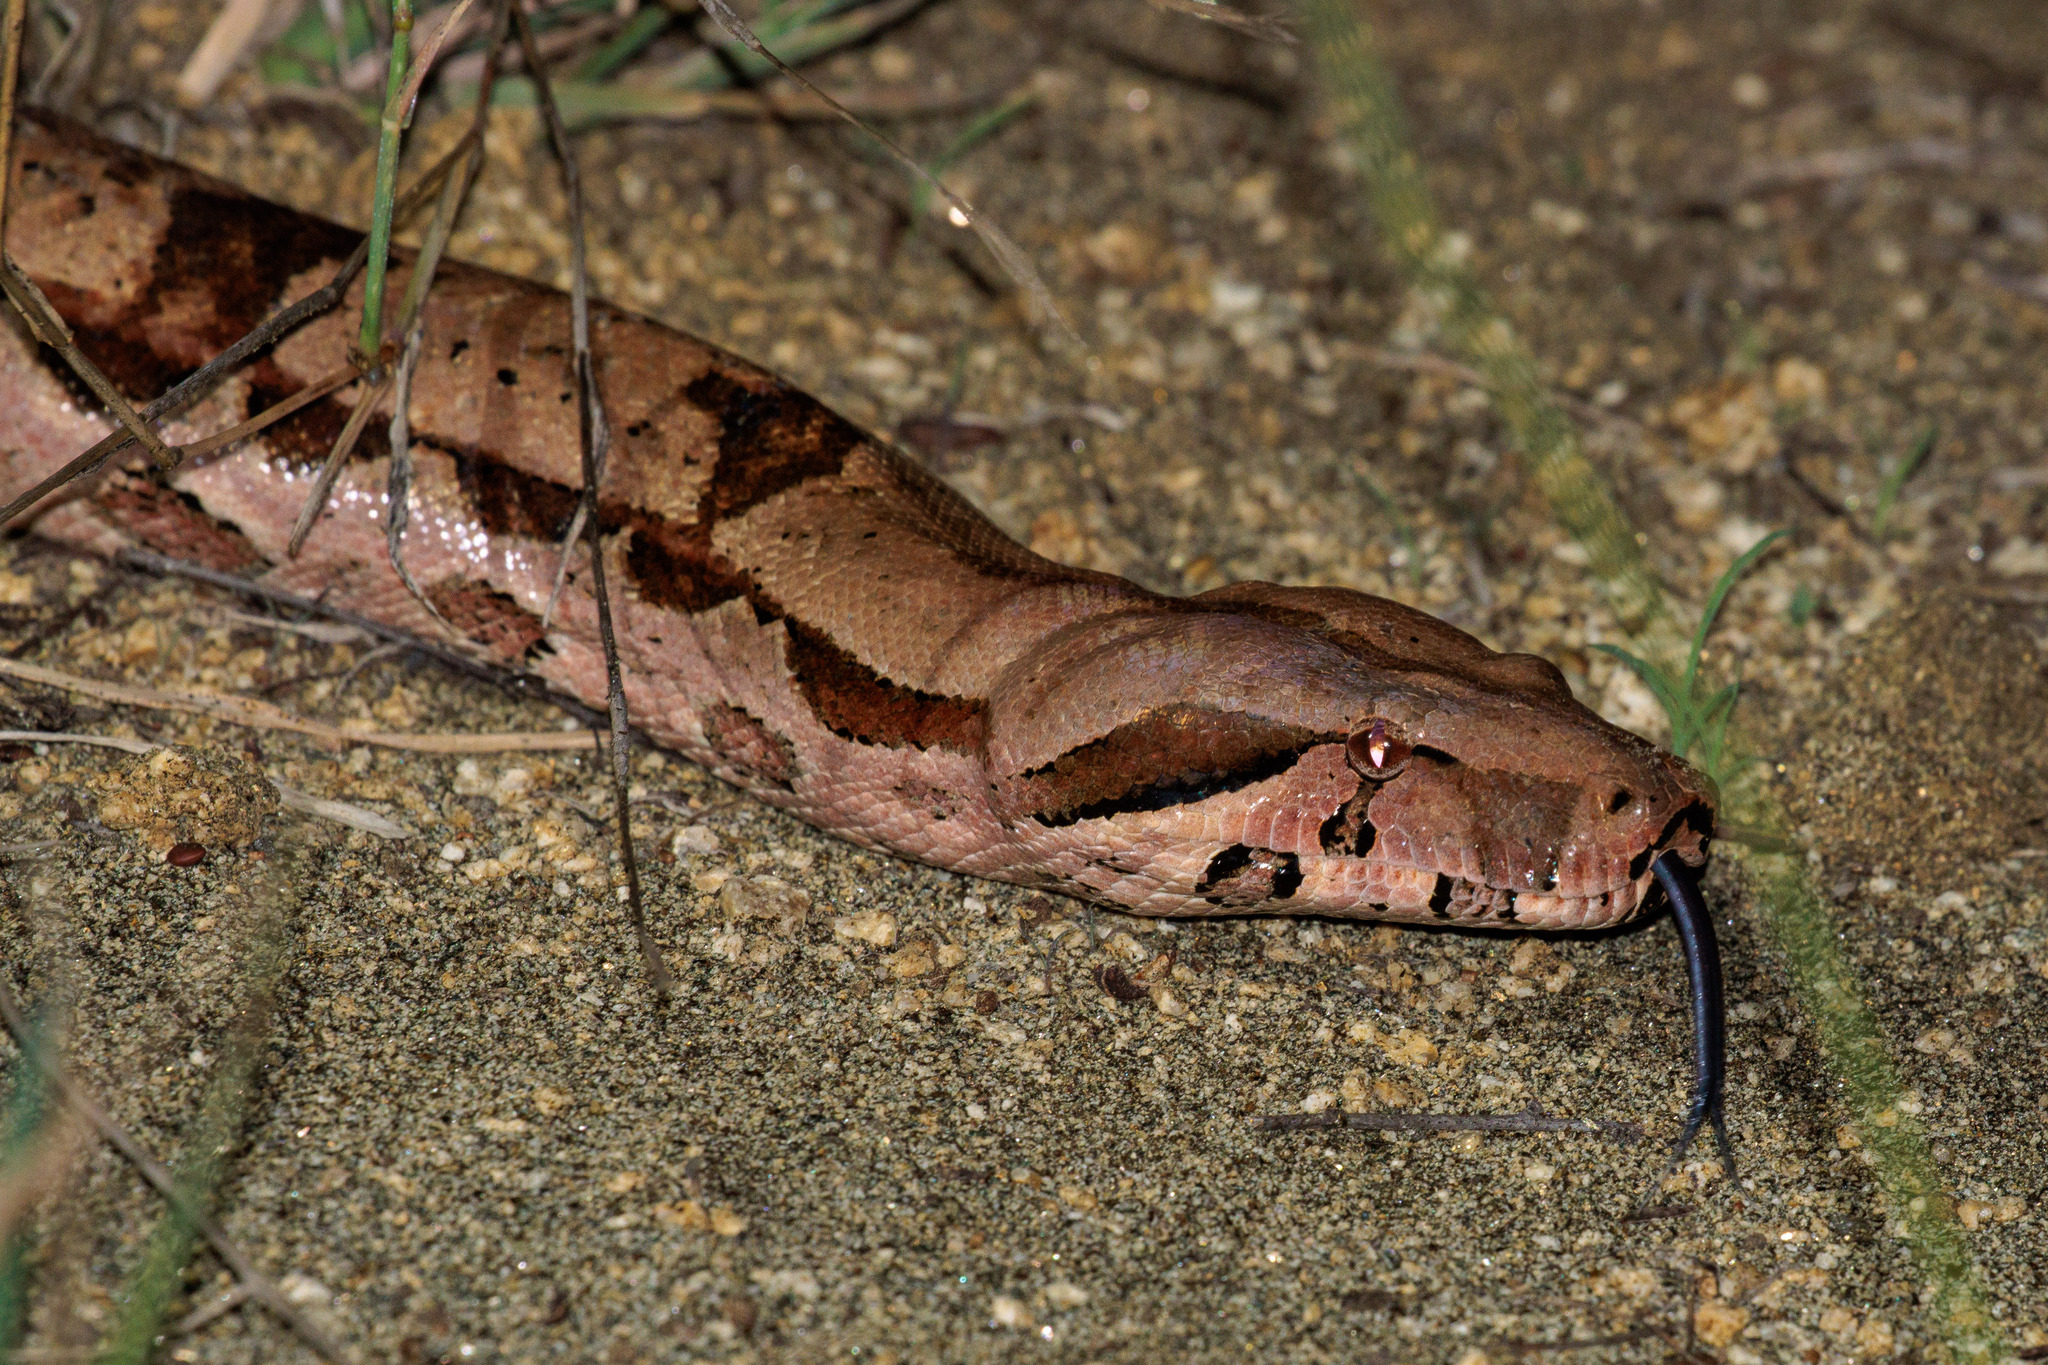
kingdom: Animalia
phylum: Chordata
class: Squamata
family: Boidae
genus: Boa
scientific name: Boa constrictor
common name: Boa constrictor
